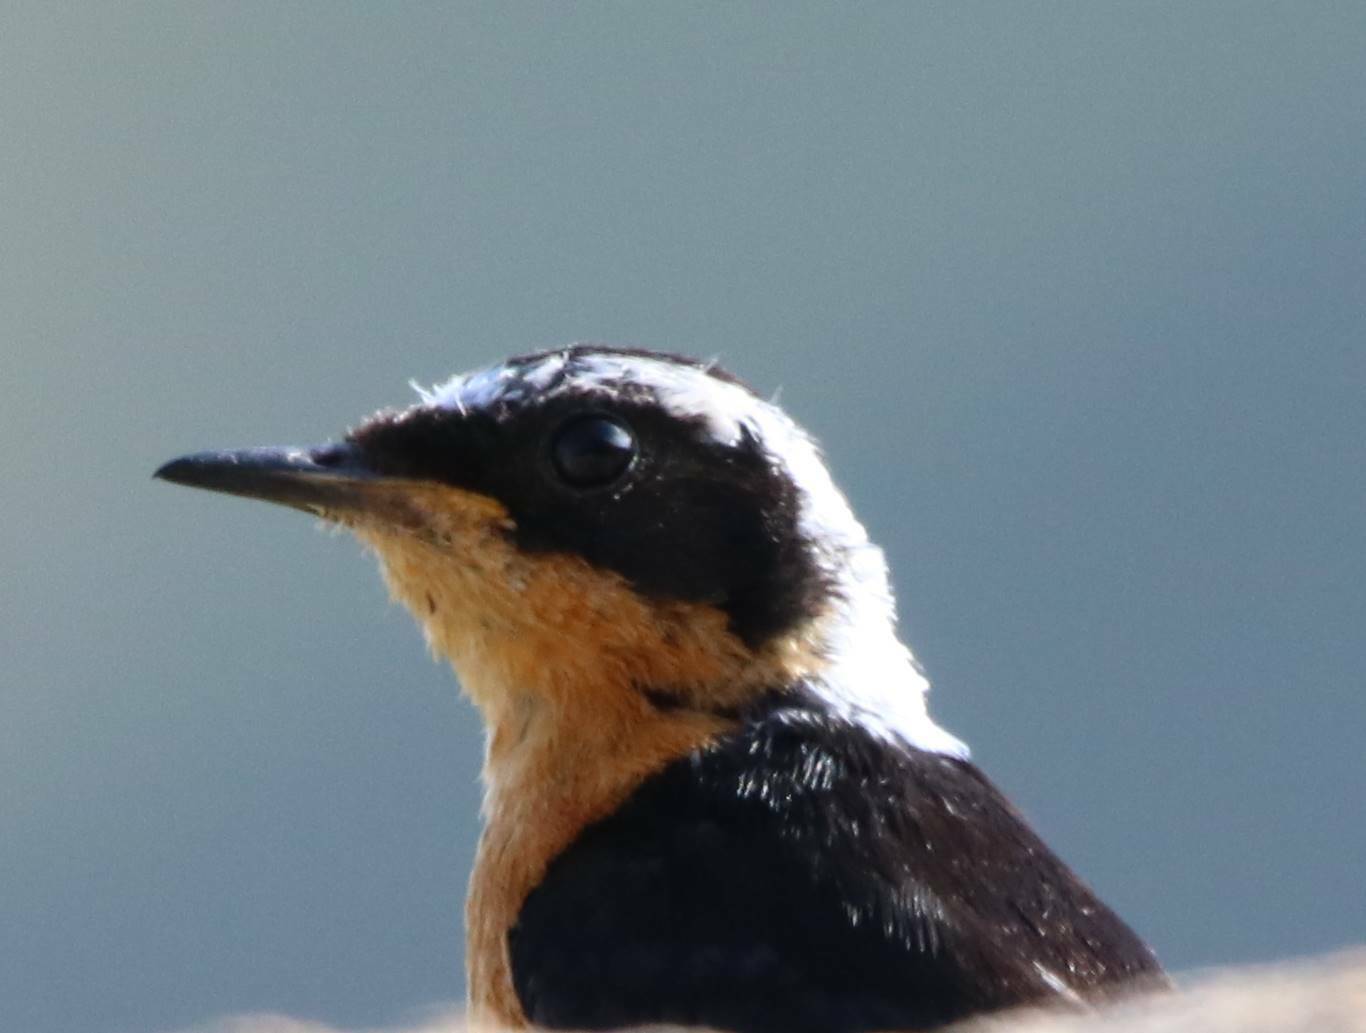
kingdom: Animalia
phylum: Chordata
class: Aves
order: Passeriformes
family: Muscicapidae
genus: Phoenicurus
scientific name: Phoenicurus moussieri
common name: Moussier's redstart
